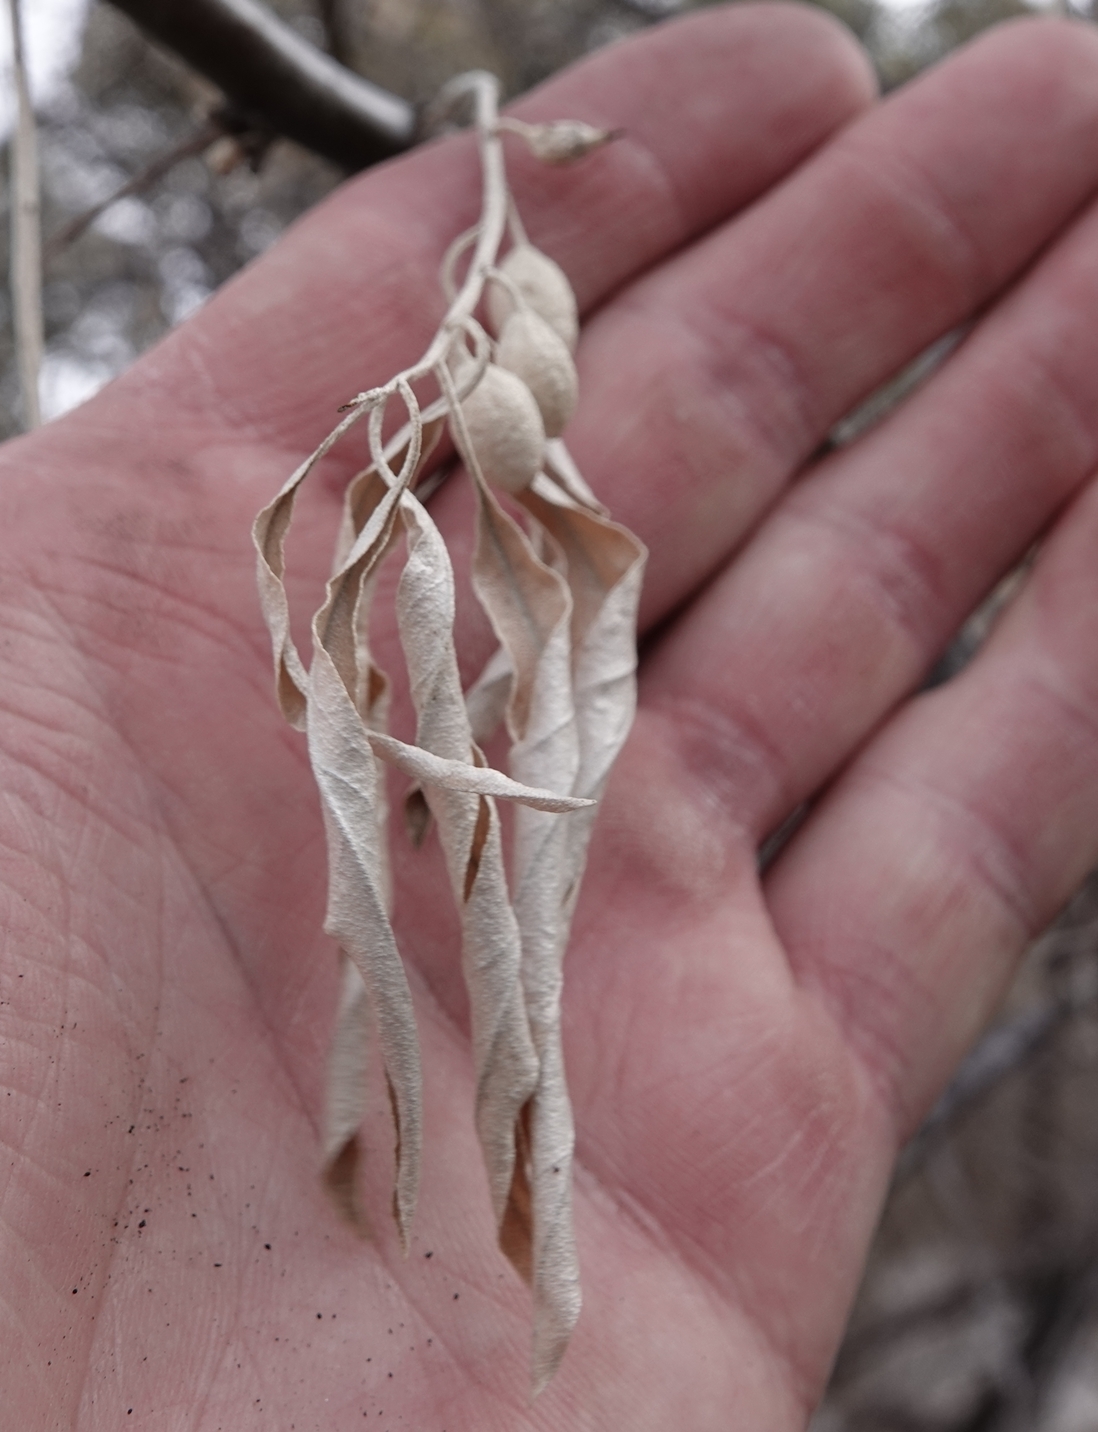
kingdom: Plantae
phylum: Tracheophyta
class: Magnoliopsida
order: Rosales
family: Elaeagnaceae
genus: Elaeagnus
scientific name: Elaeagnus angustifolia
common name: Russian olive
